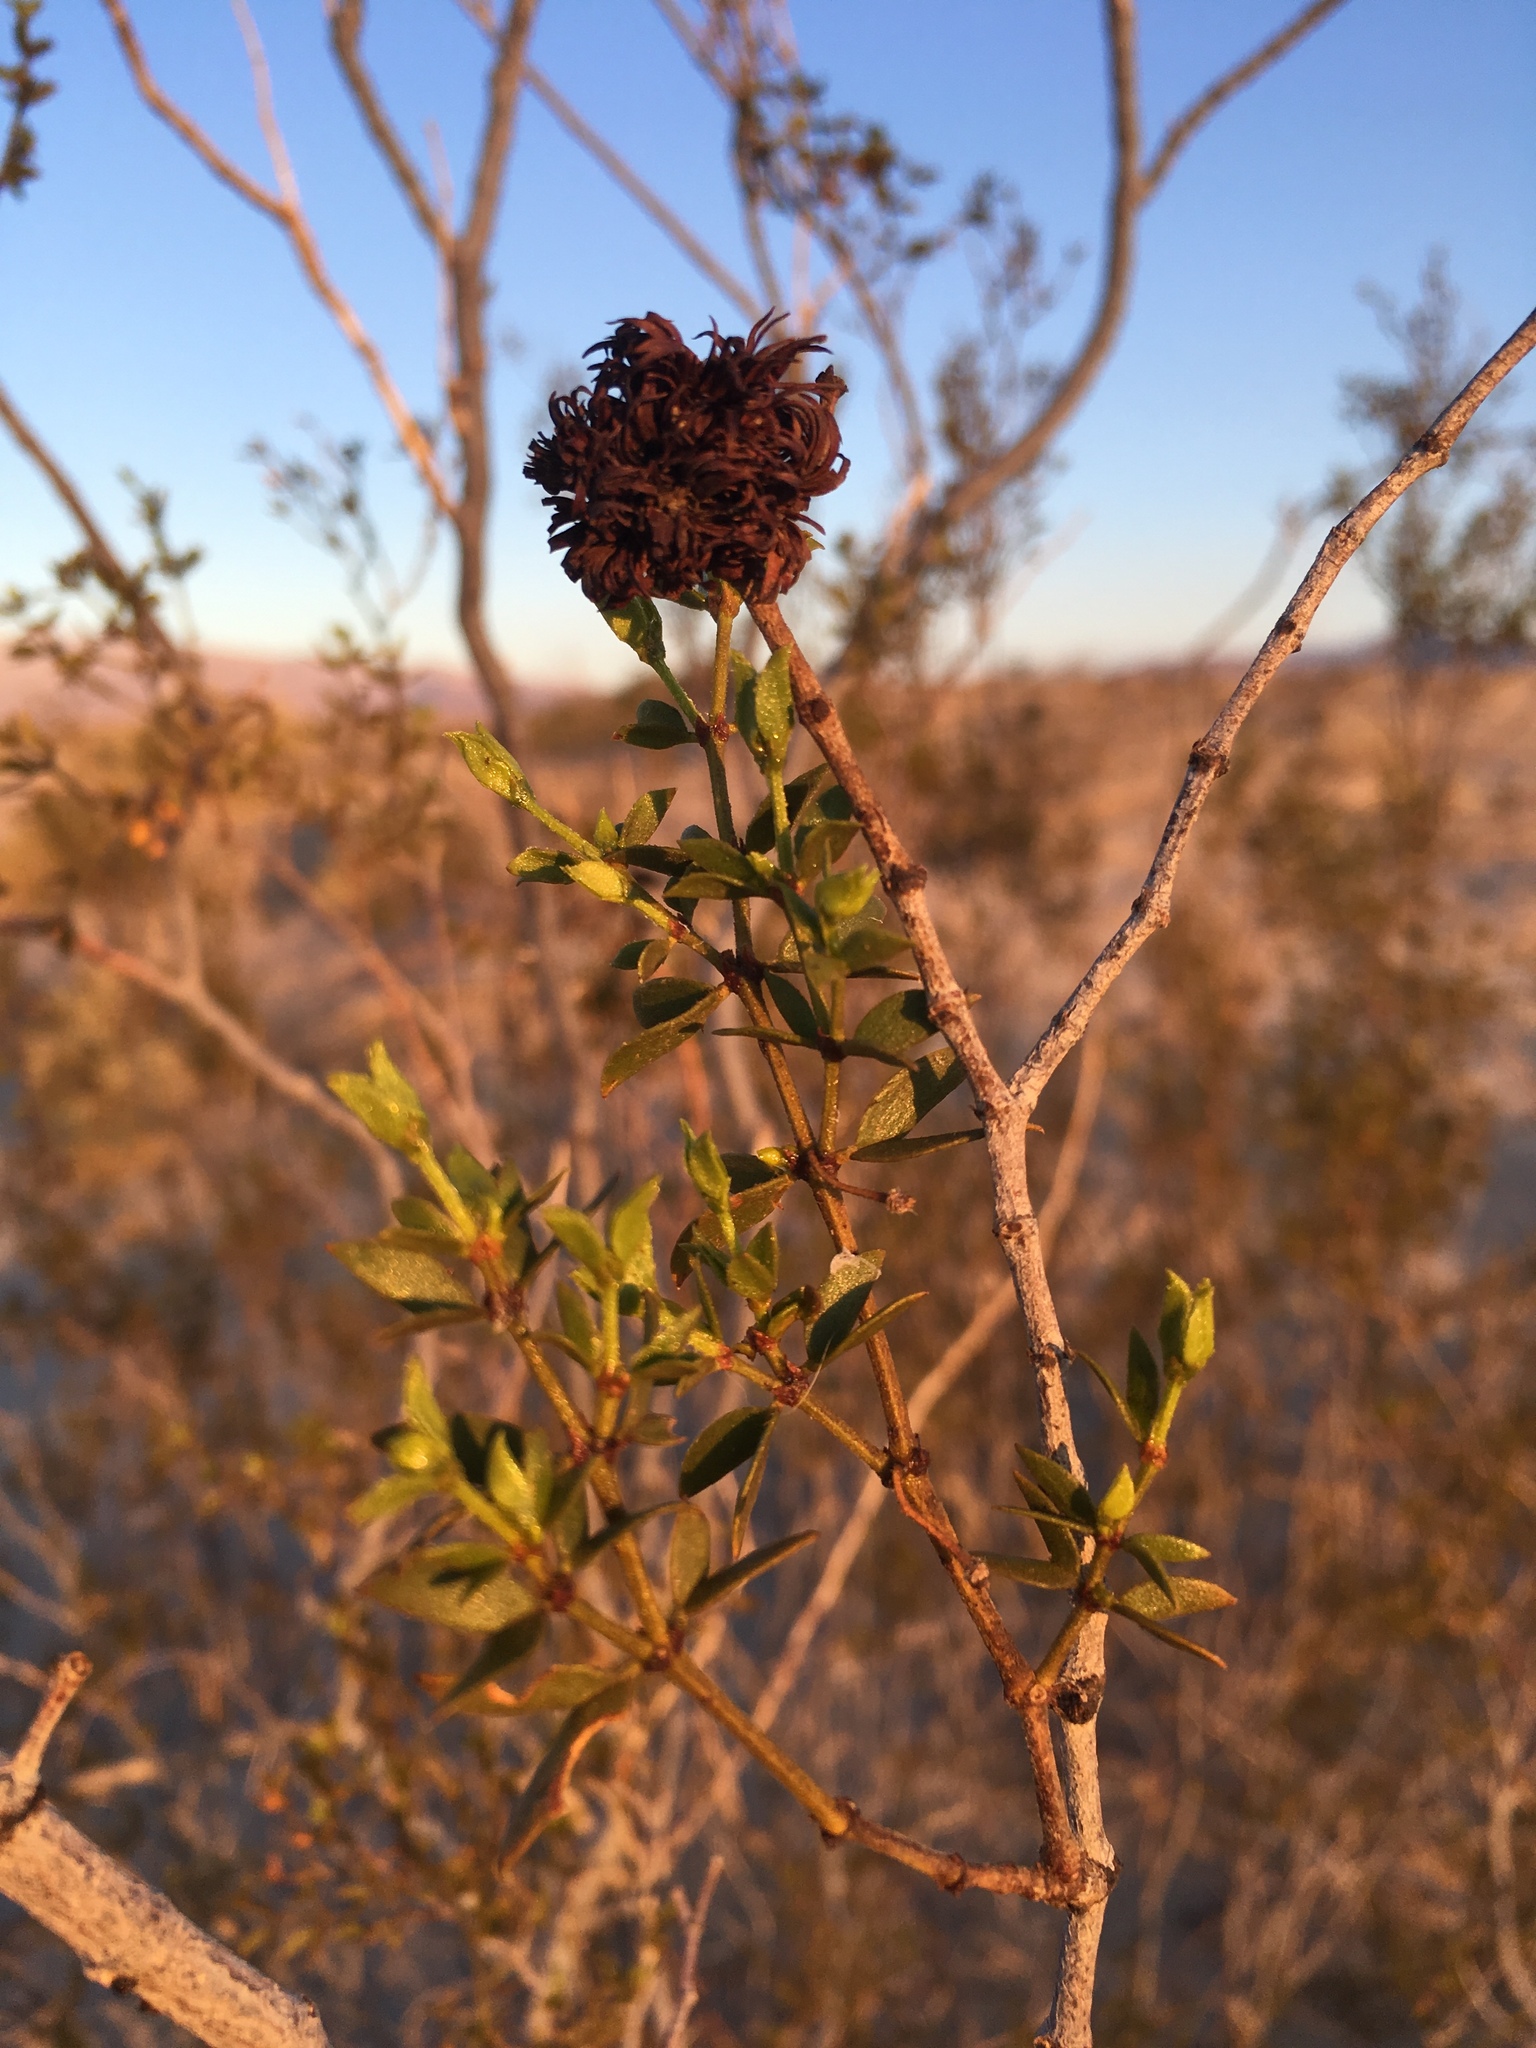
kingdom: Plantae
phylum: Tracheophyta
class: Magnoliopsida
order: Zygophyllales
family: Zygophyllaceae
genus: Larrea
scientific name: Larrea tridentata
